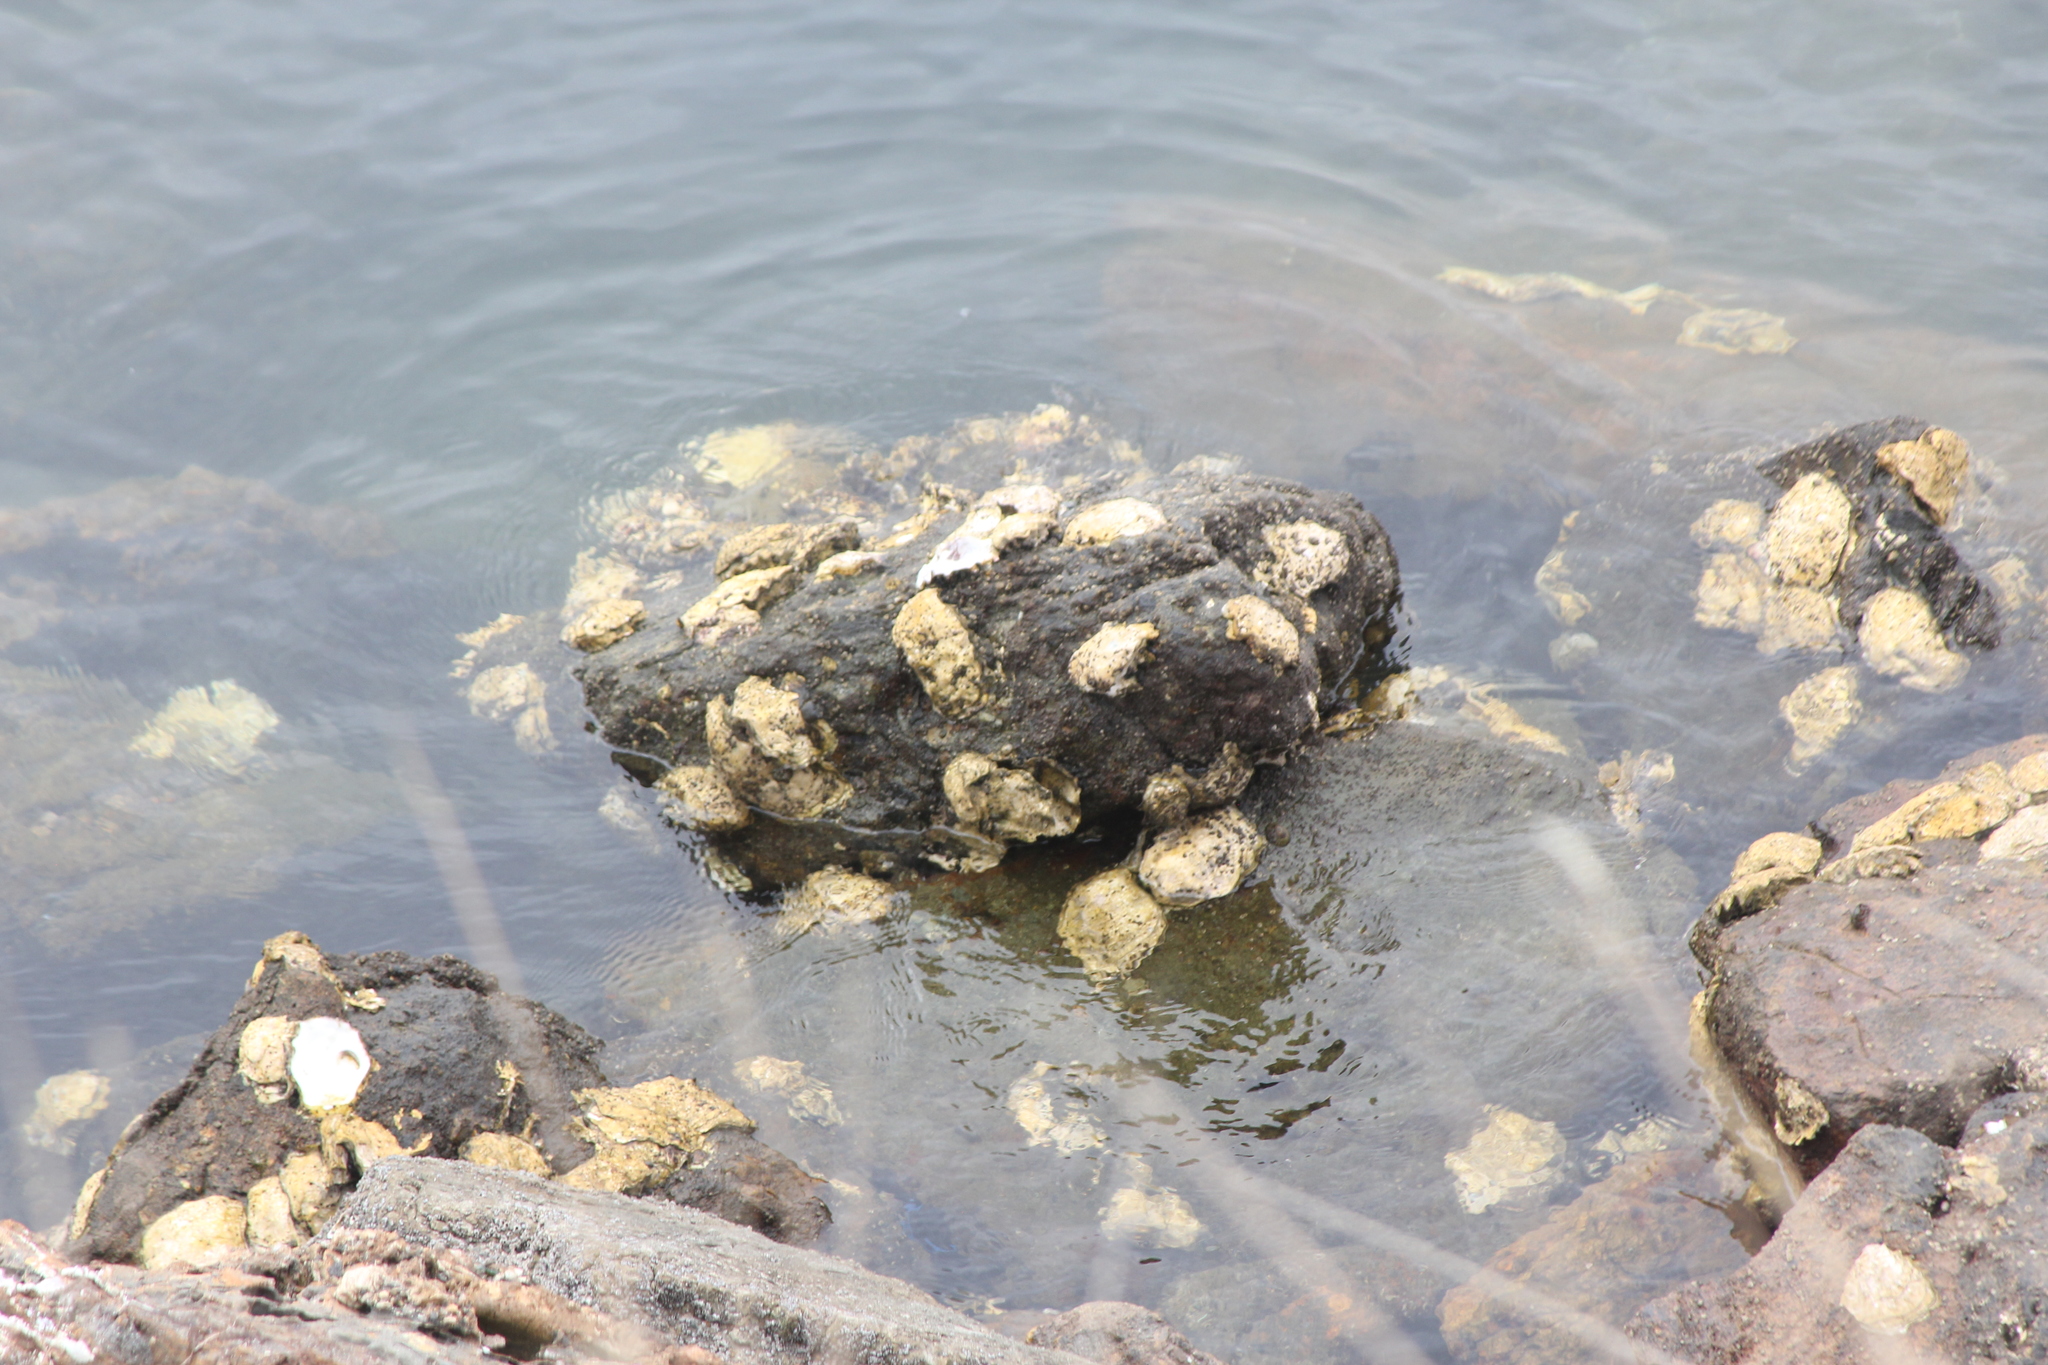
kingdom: Animalia
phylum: Mollusca
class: Bivalvia
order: Ostreida
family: Ostreidae
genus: Magallana
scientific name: Magallana gigas
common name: Pacific oyster
